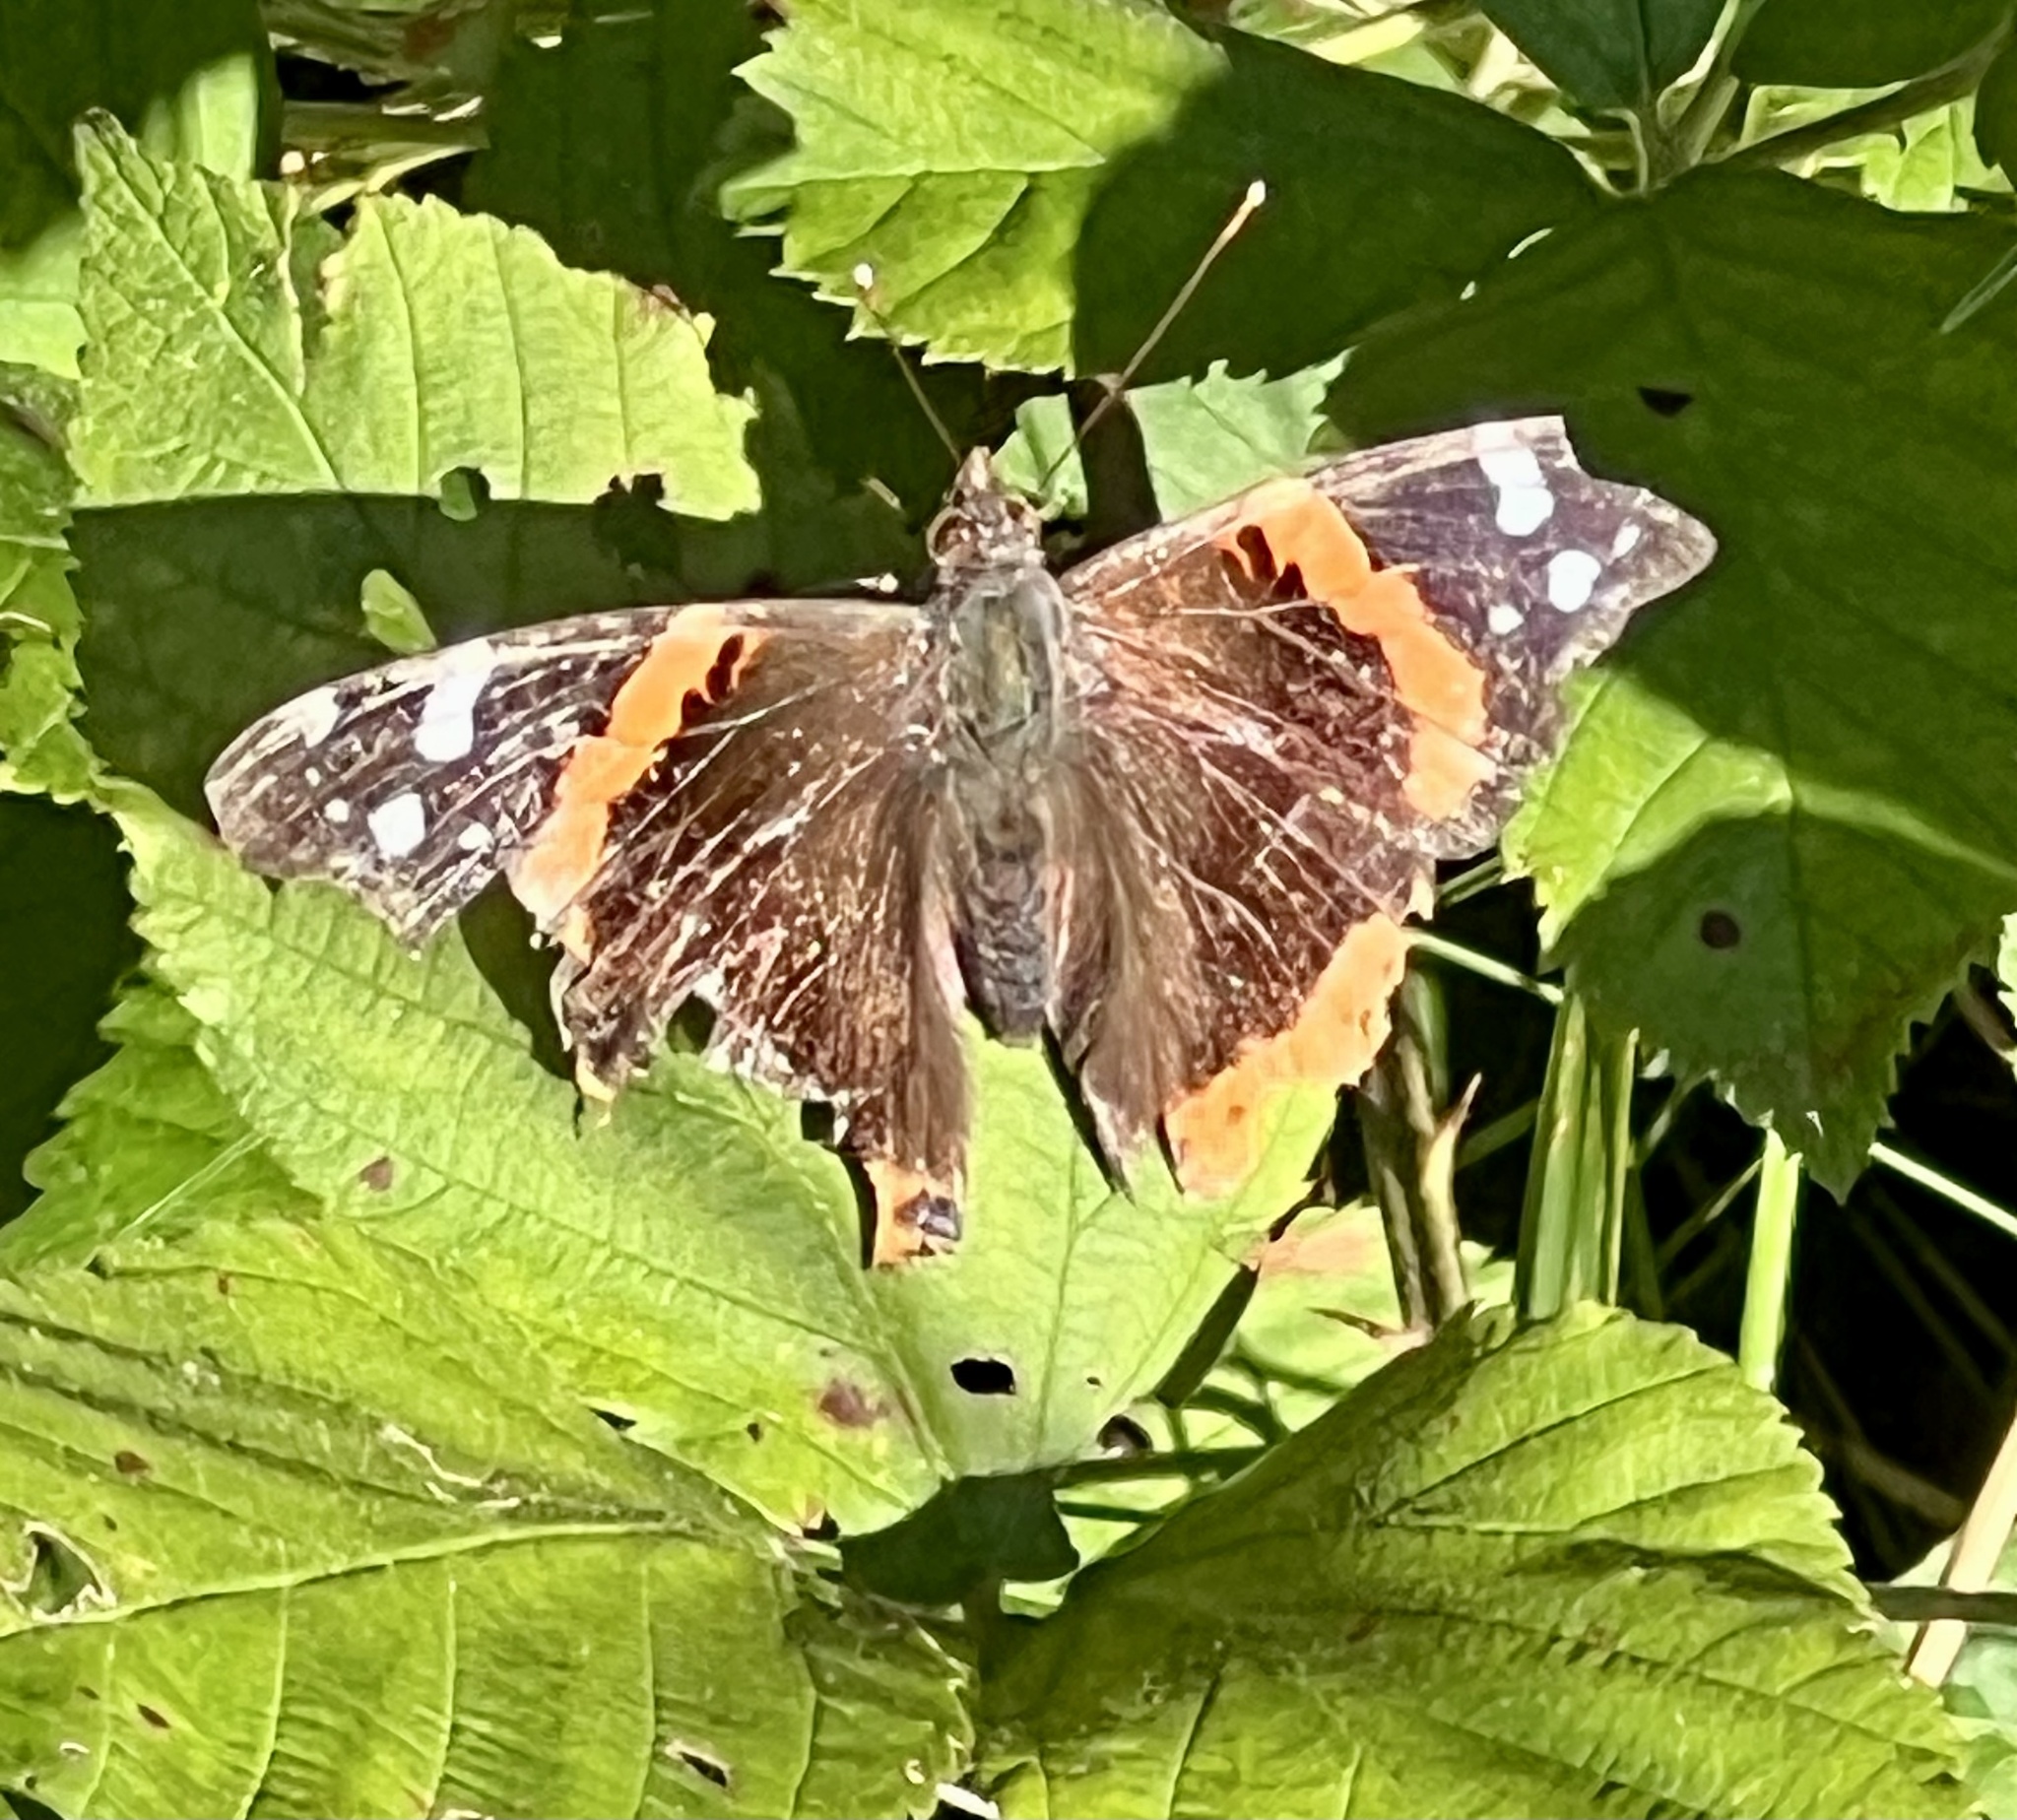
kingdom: Animalia
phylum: Arthropoda
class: Insecta
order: Lepidoptera
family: Nymphalidae
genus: Vanessa
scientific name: Vanessa atalanta
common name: Red admiral
